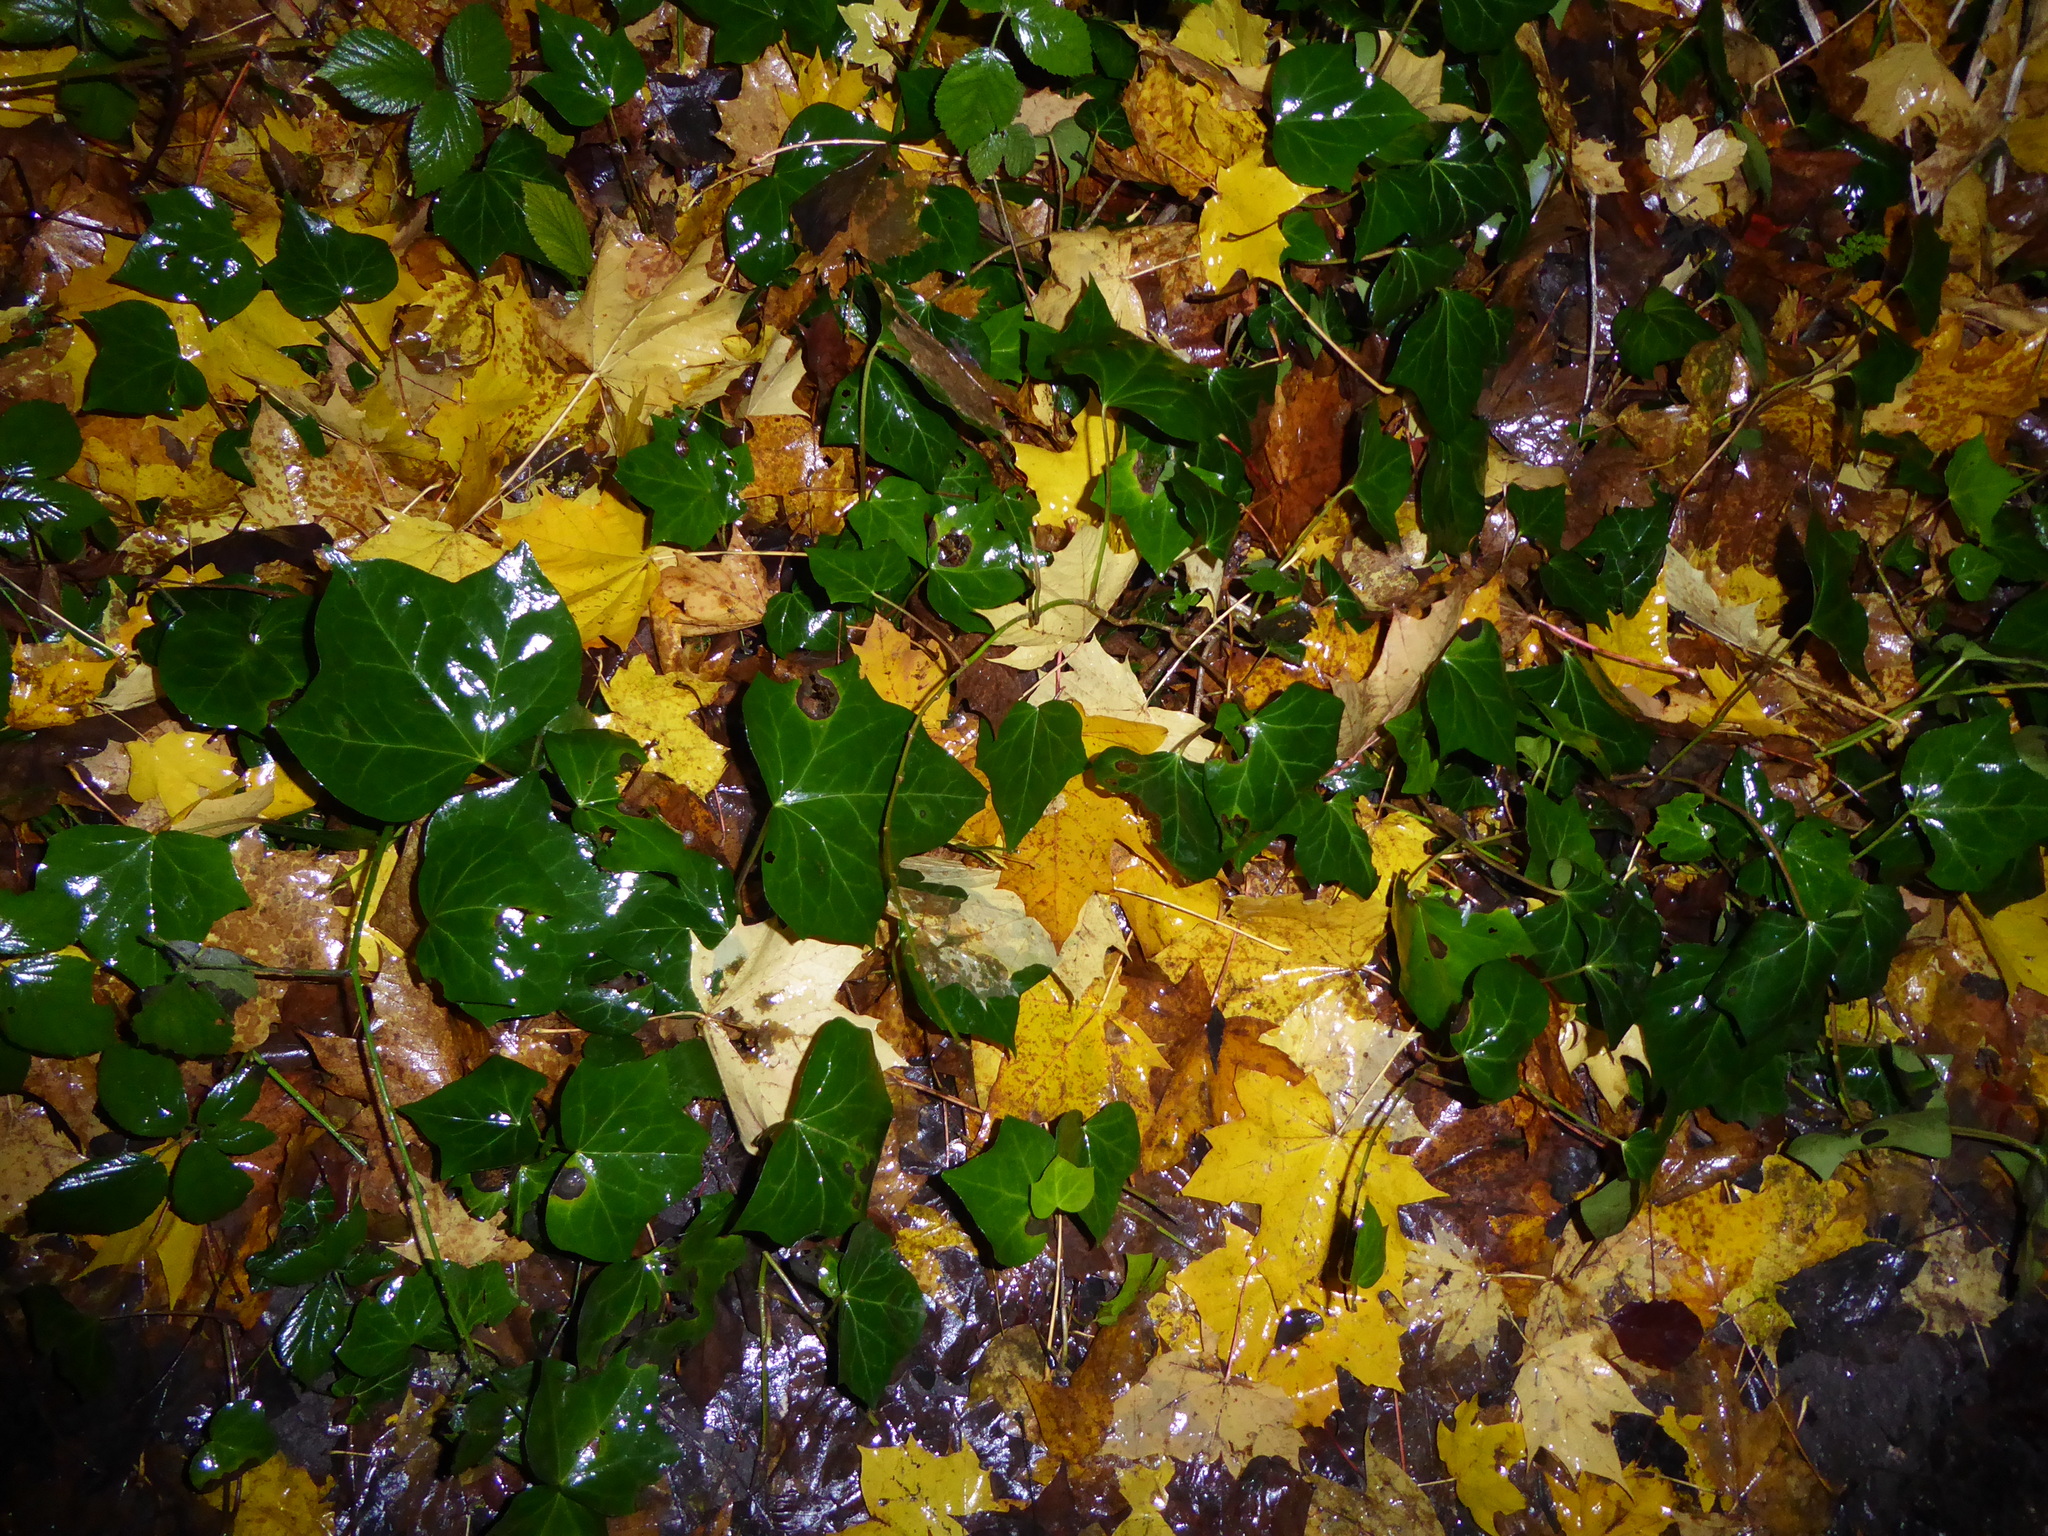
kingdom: Plantae
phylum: Tracheophyta
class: Magnoliopsida
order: Apiales
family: Araliaceae
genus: Hedera
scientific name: Hedera helix
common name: Ivy
